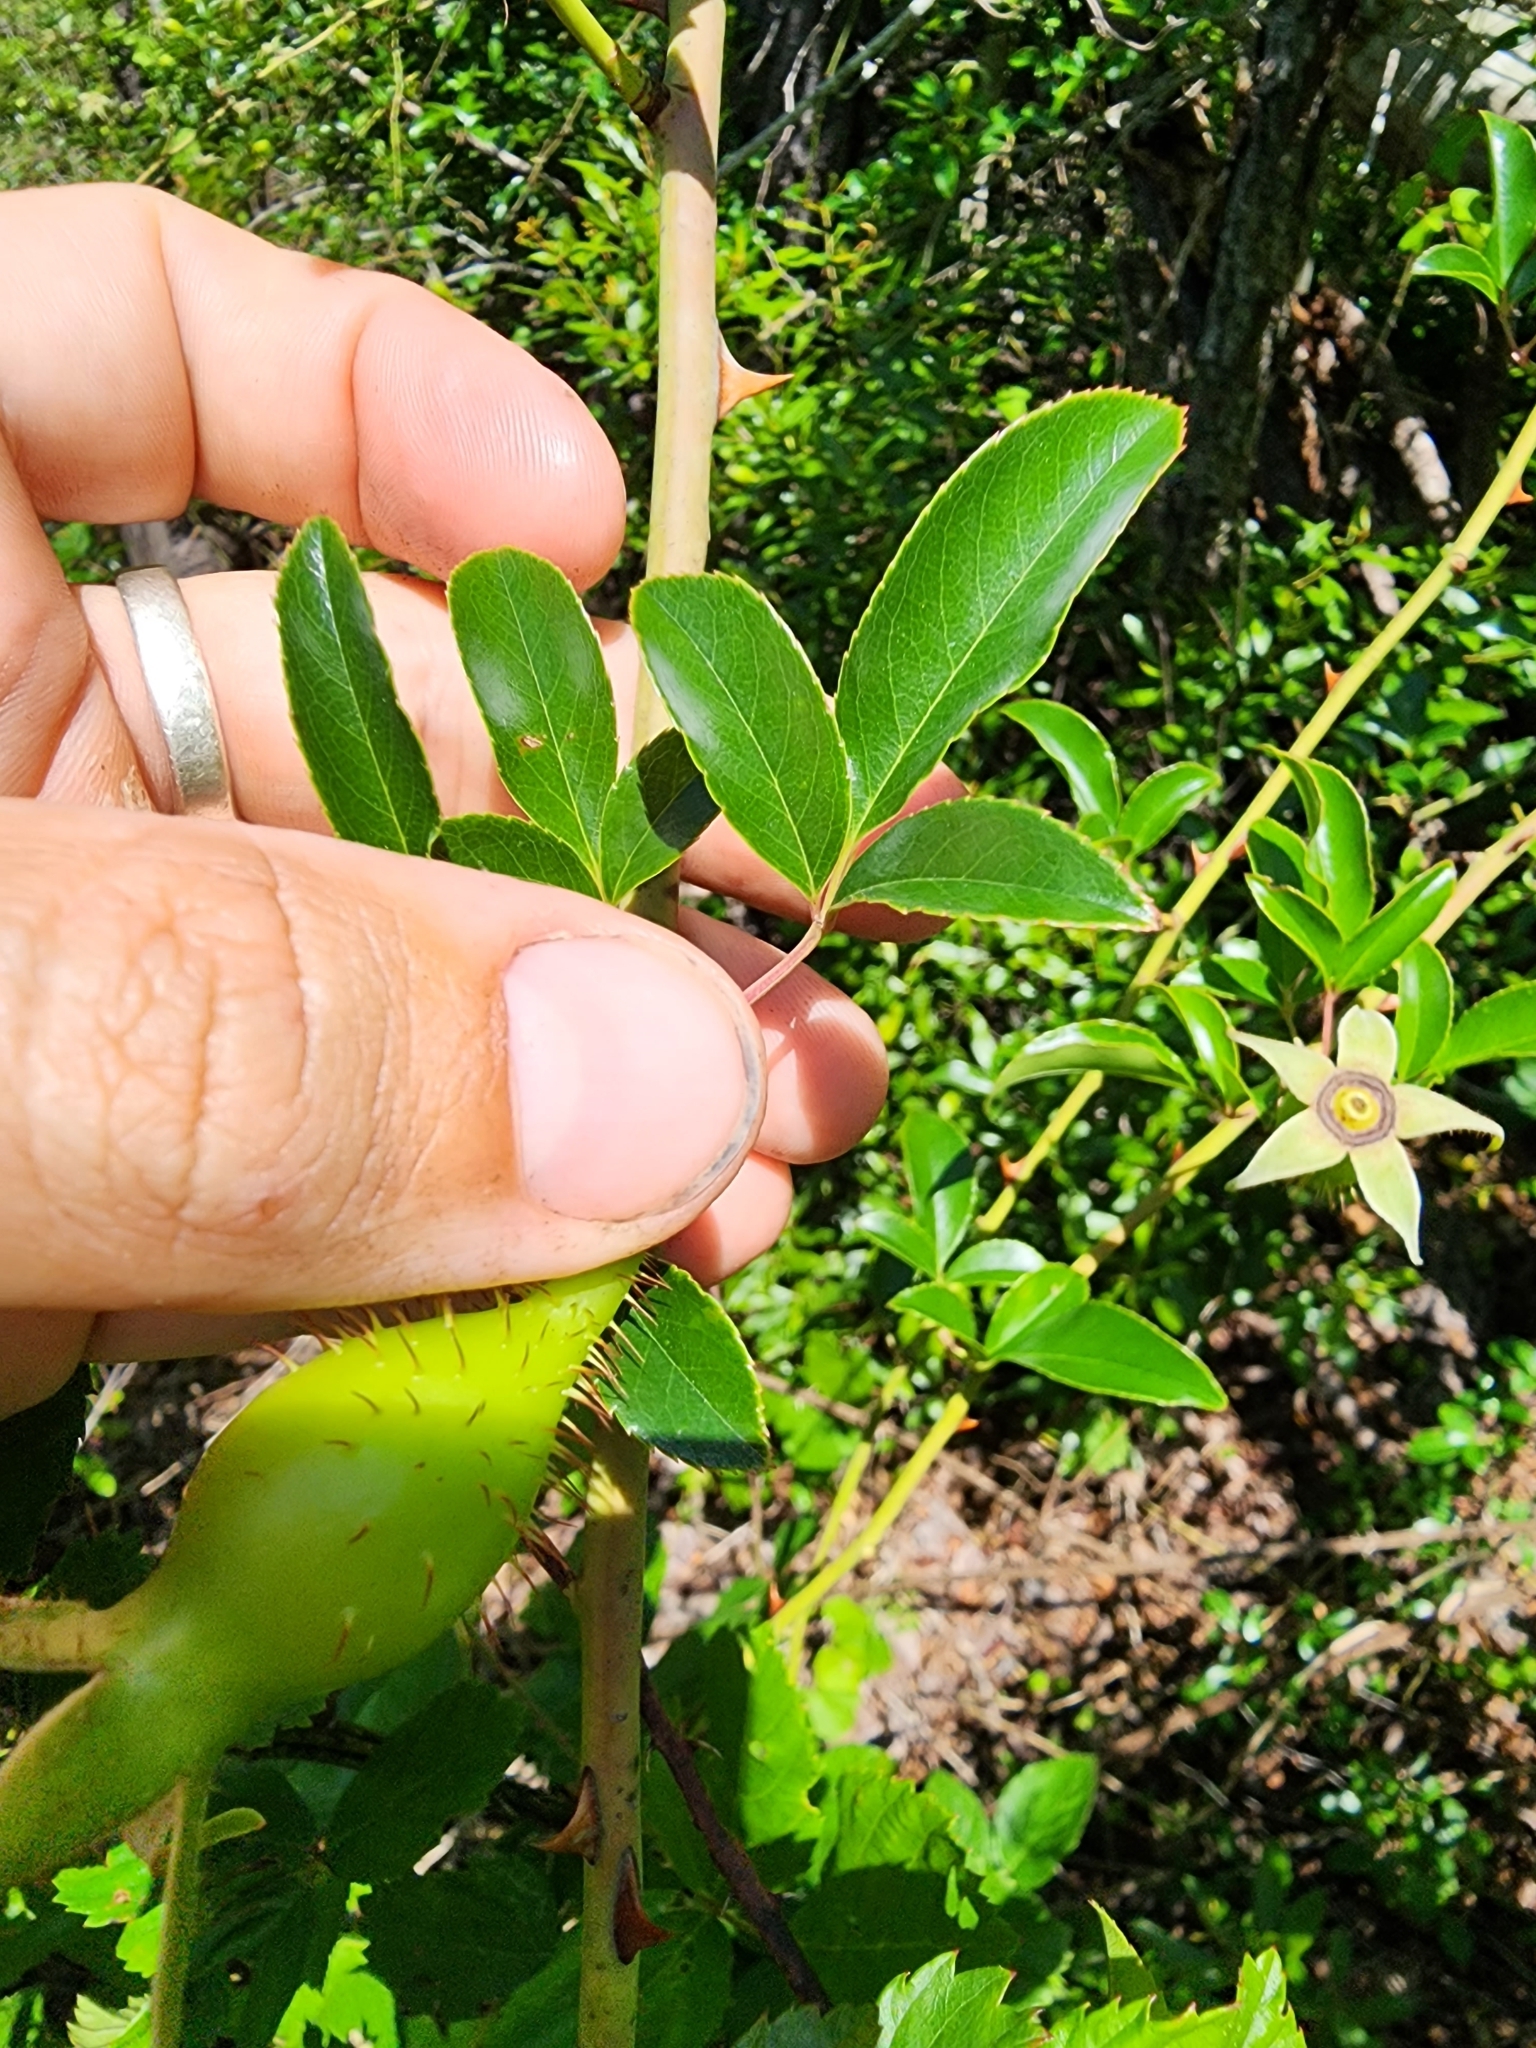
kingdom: Plantae
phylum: Tracheophyta
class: Magnoliopsida
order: Rosales
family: Rosaceae
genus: Rosa
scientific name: Rosa laevigata
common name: Cherokee rose
